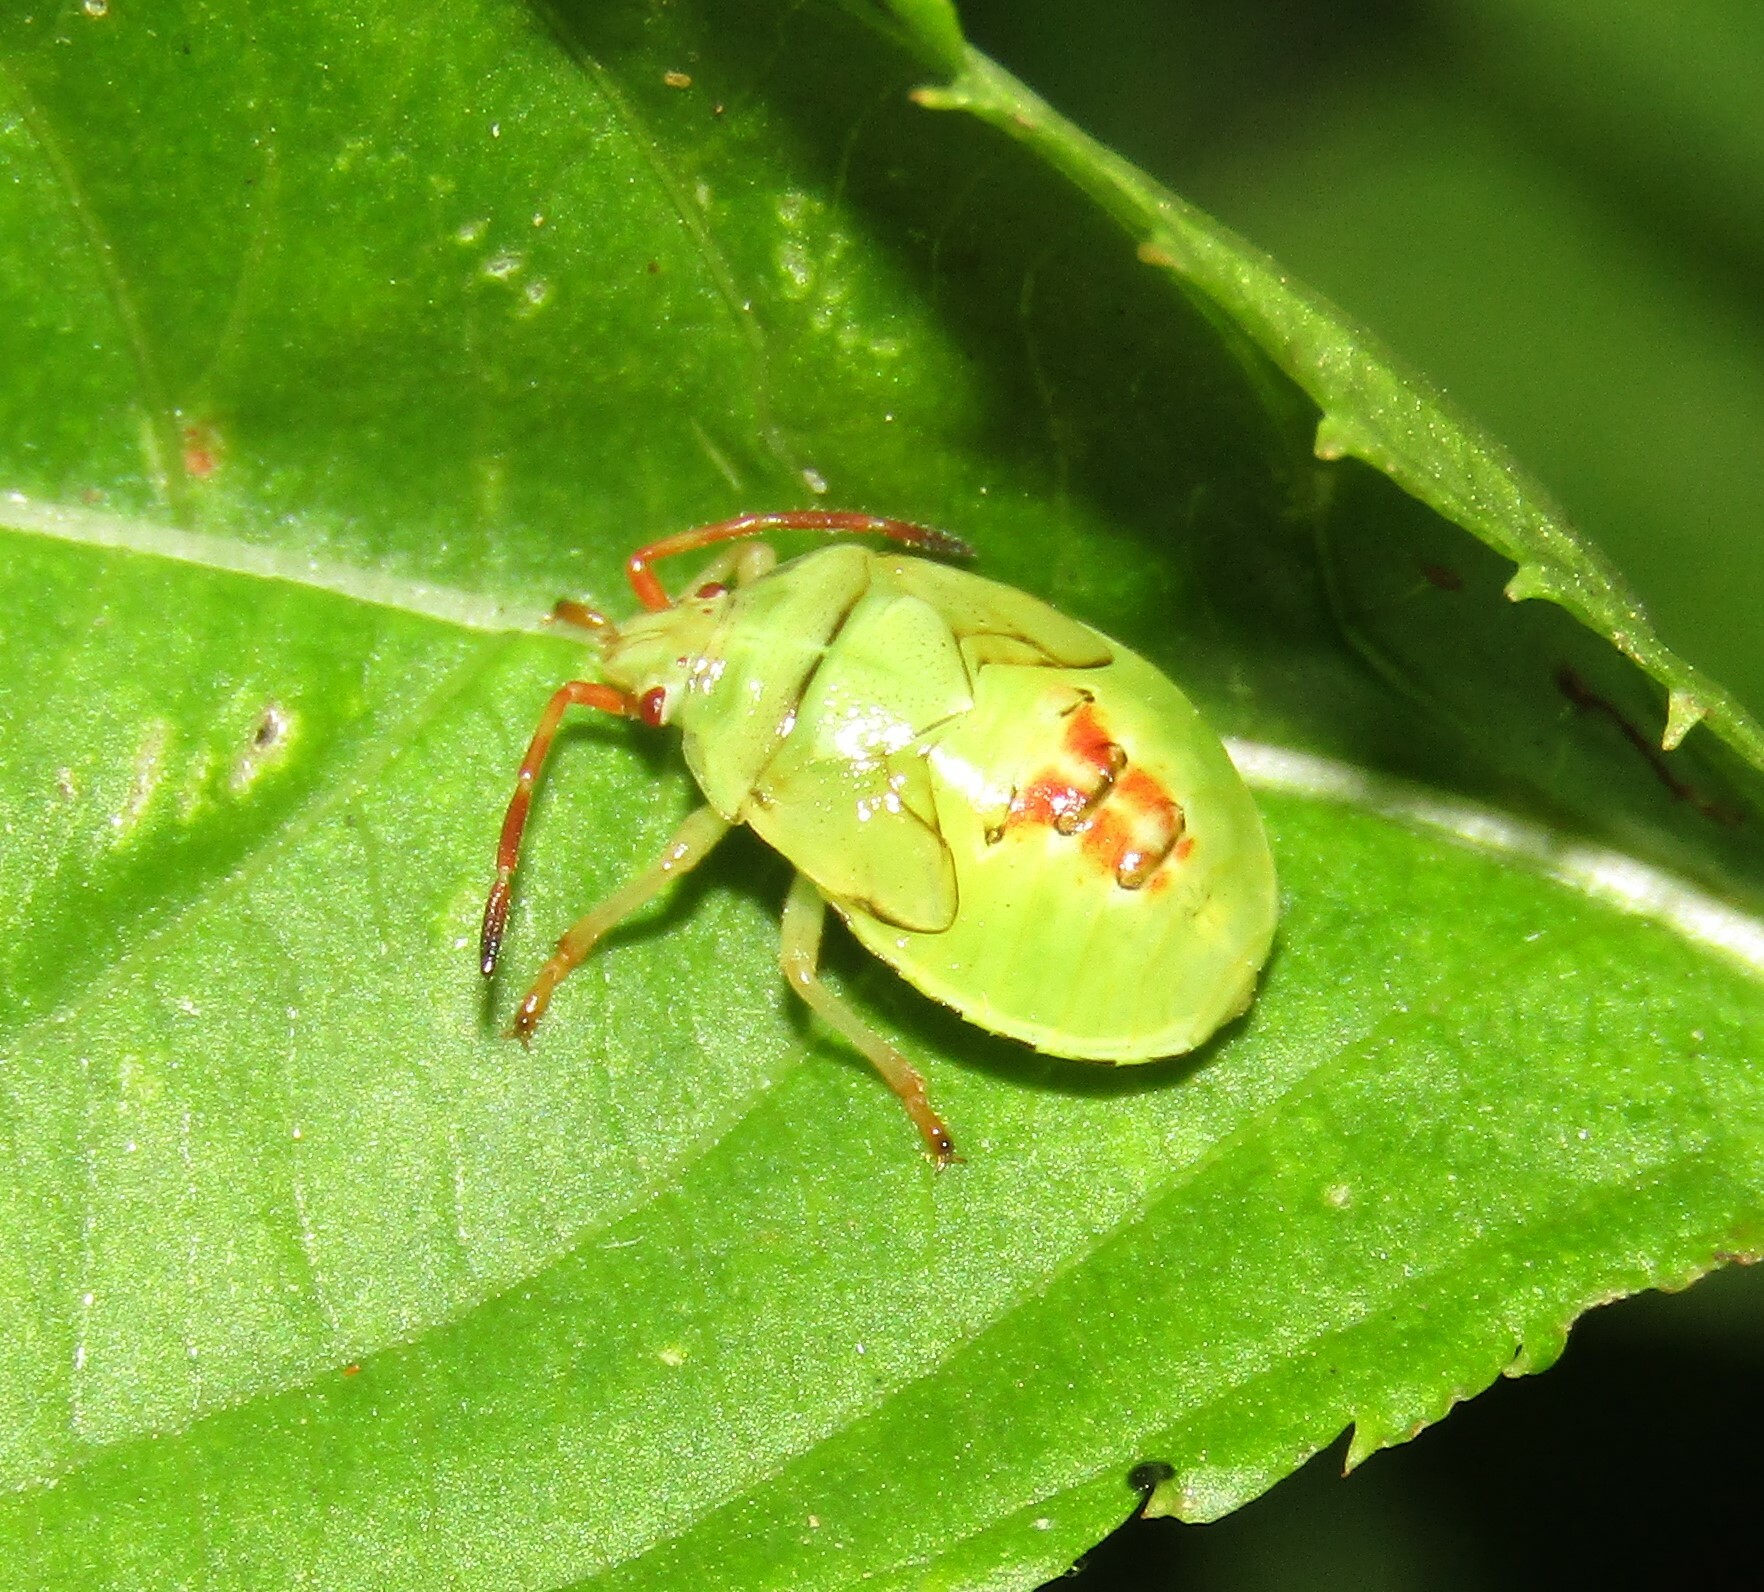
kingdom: Animalia
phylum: Arthropoda
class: Insecta
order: Hemiptera
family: Acanthosomatidae
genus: Elasmostethus
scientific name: Elasmostethus
